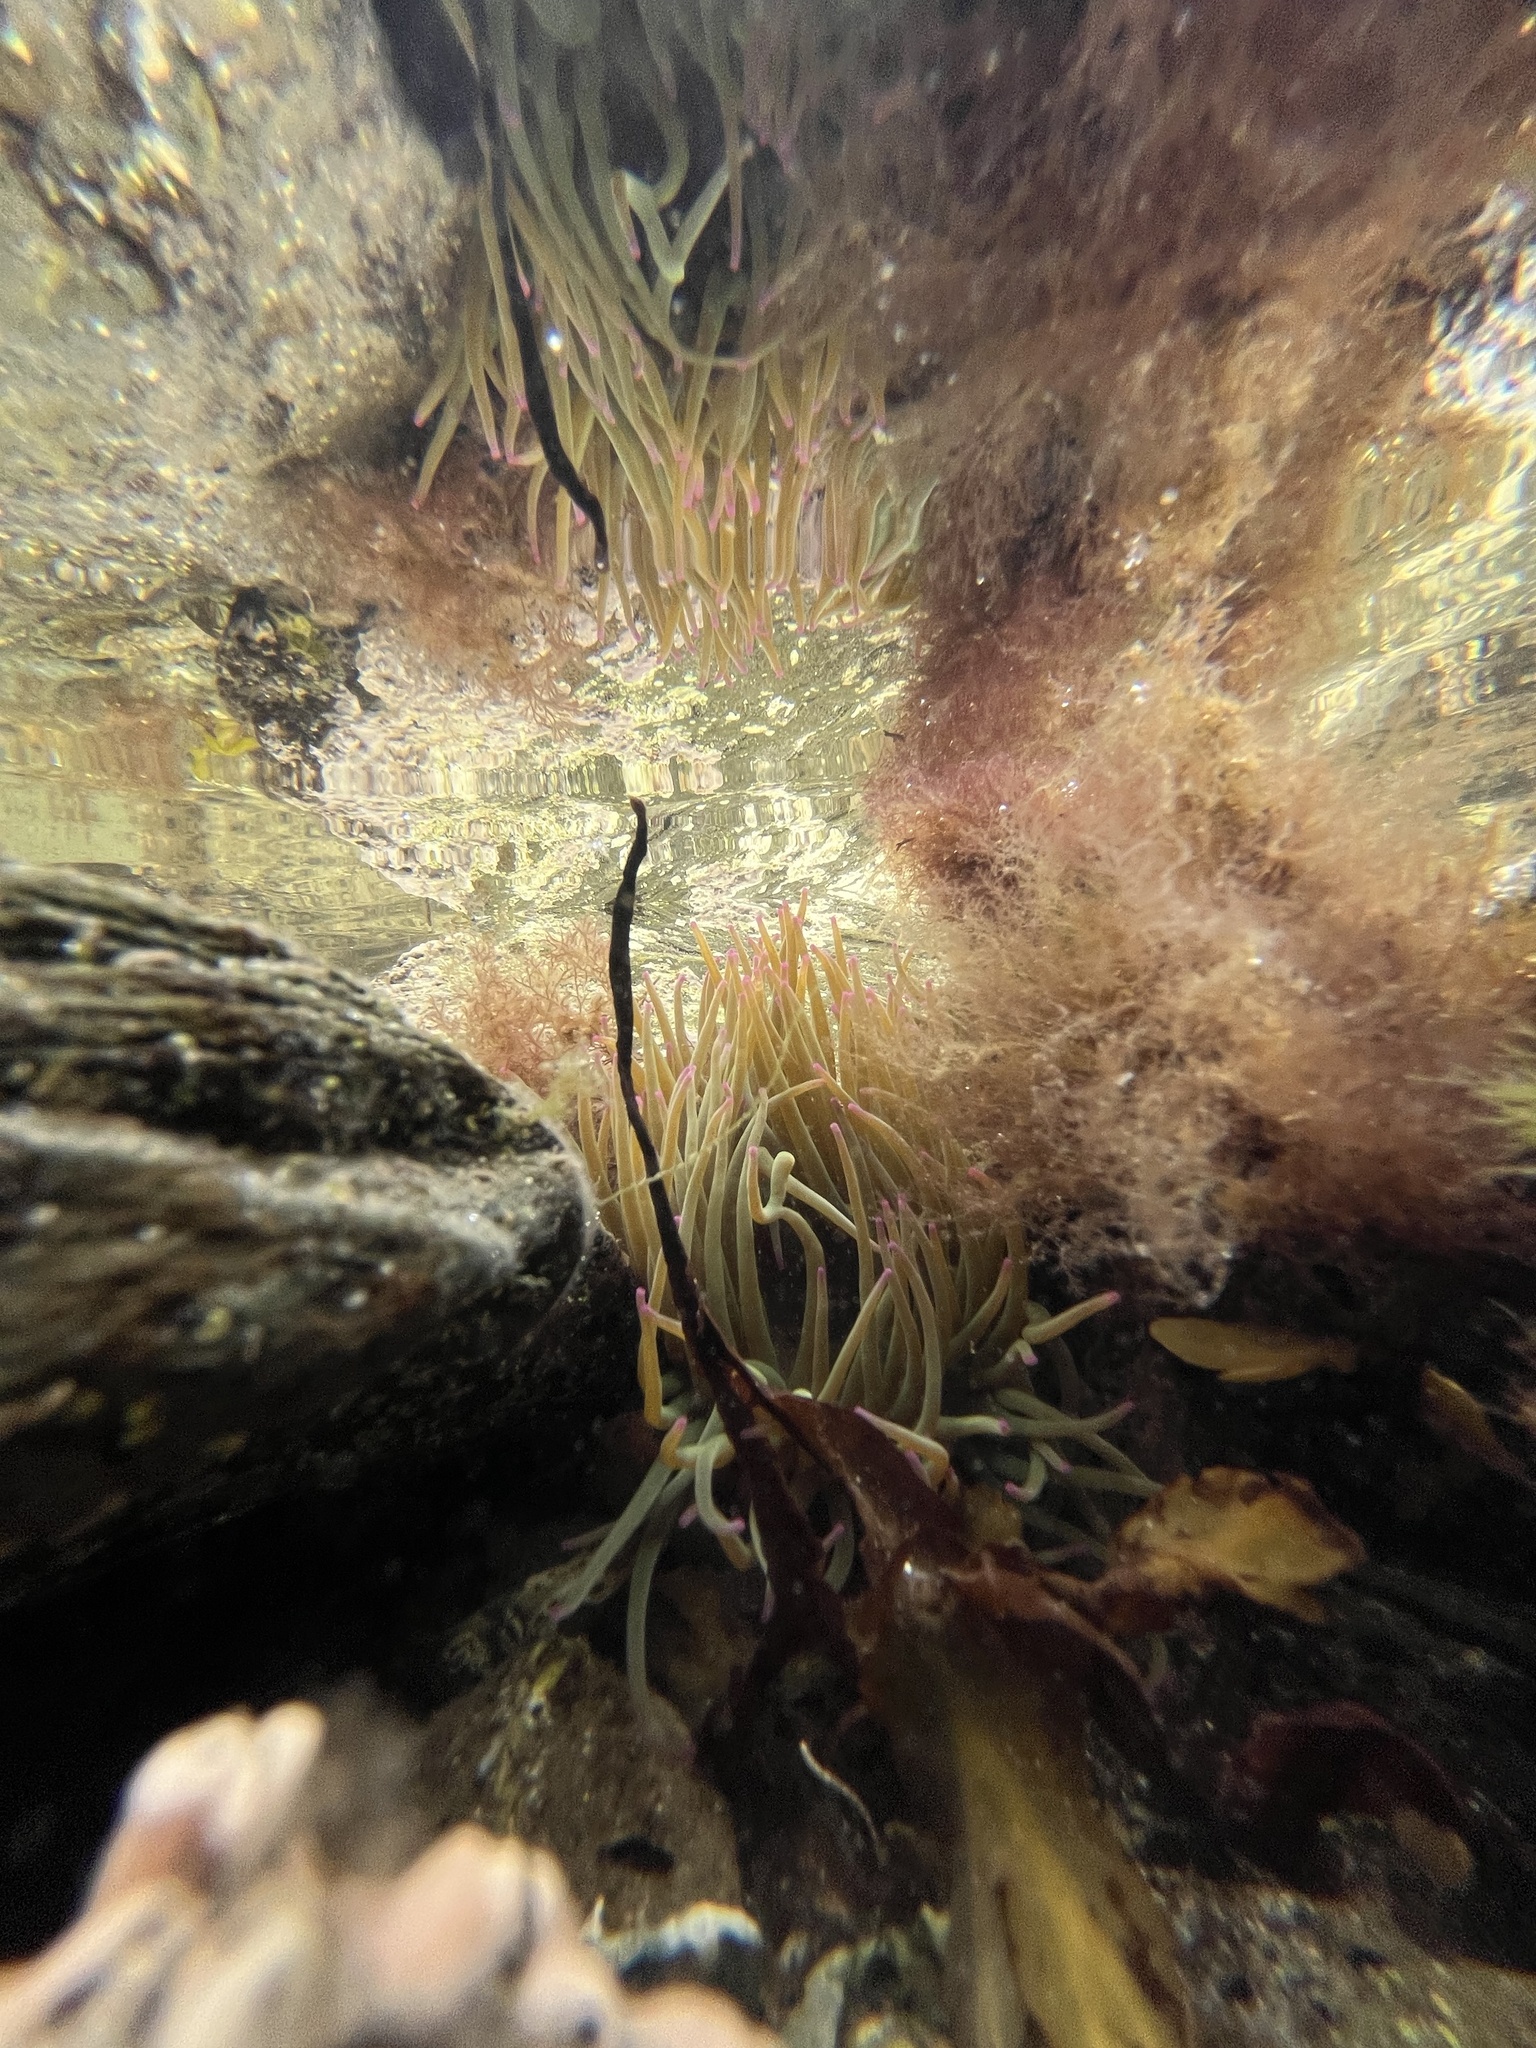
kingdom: Animalia
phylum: Cnidaria
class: Anthozoa
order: Actiniaria
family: Actiniidae
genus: Anemonia
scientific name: Anemonia viridis
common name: Snakelocks anemone
